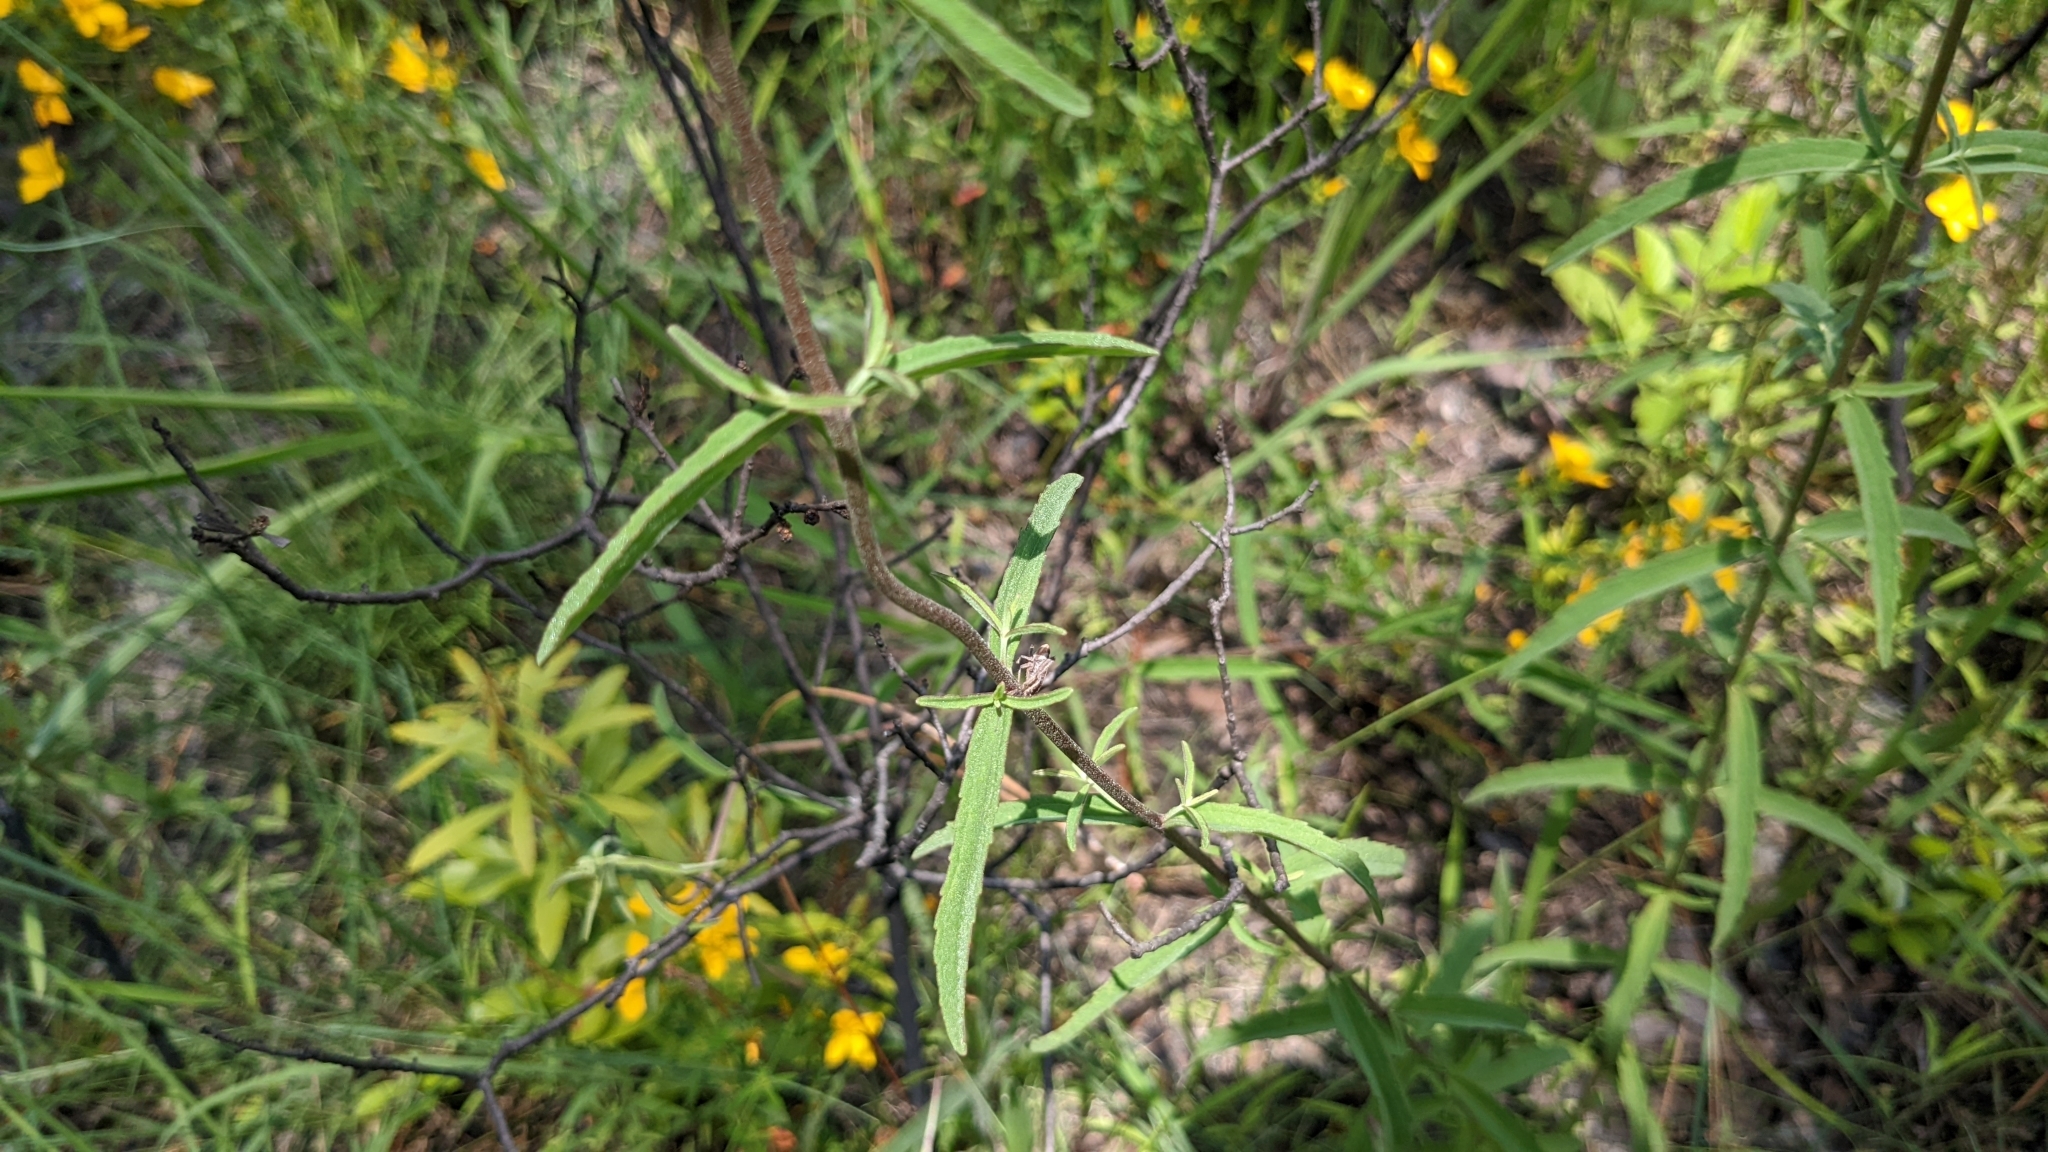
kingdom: Plantae
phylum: Tracheophyta
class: Magnoliopsida
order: Asterales
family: Asteraceae
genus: Eupatorium
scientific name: Eupatorium leucolepis
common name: Justiceweed
